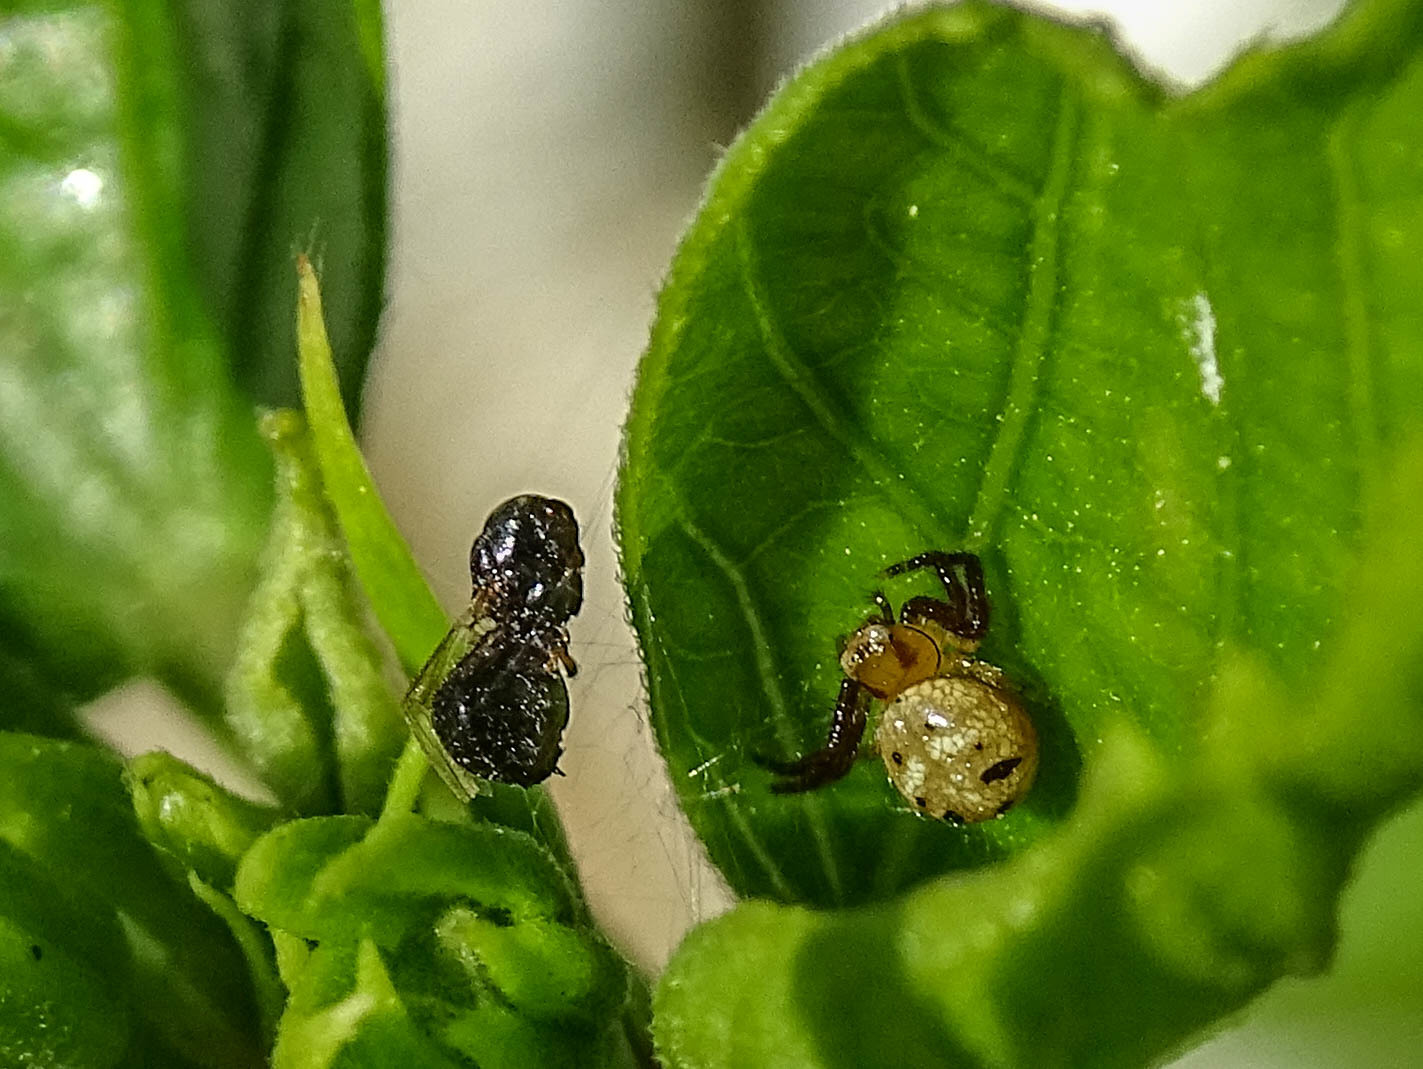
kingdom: Animalia
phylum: Arthropoda
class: Arachnida
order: Araneae
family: Thomisidae
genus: Synema
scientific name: Synema
